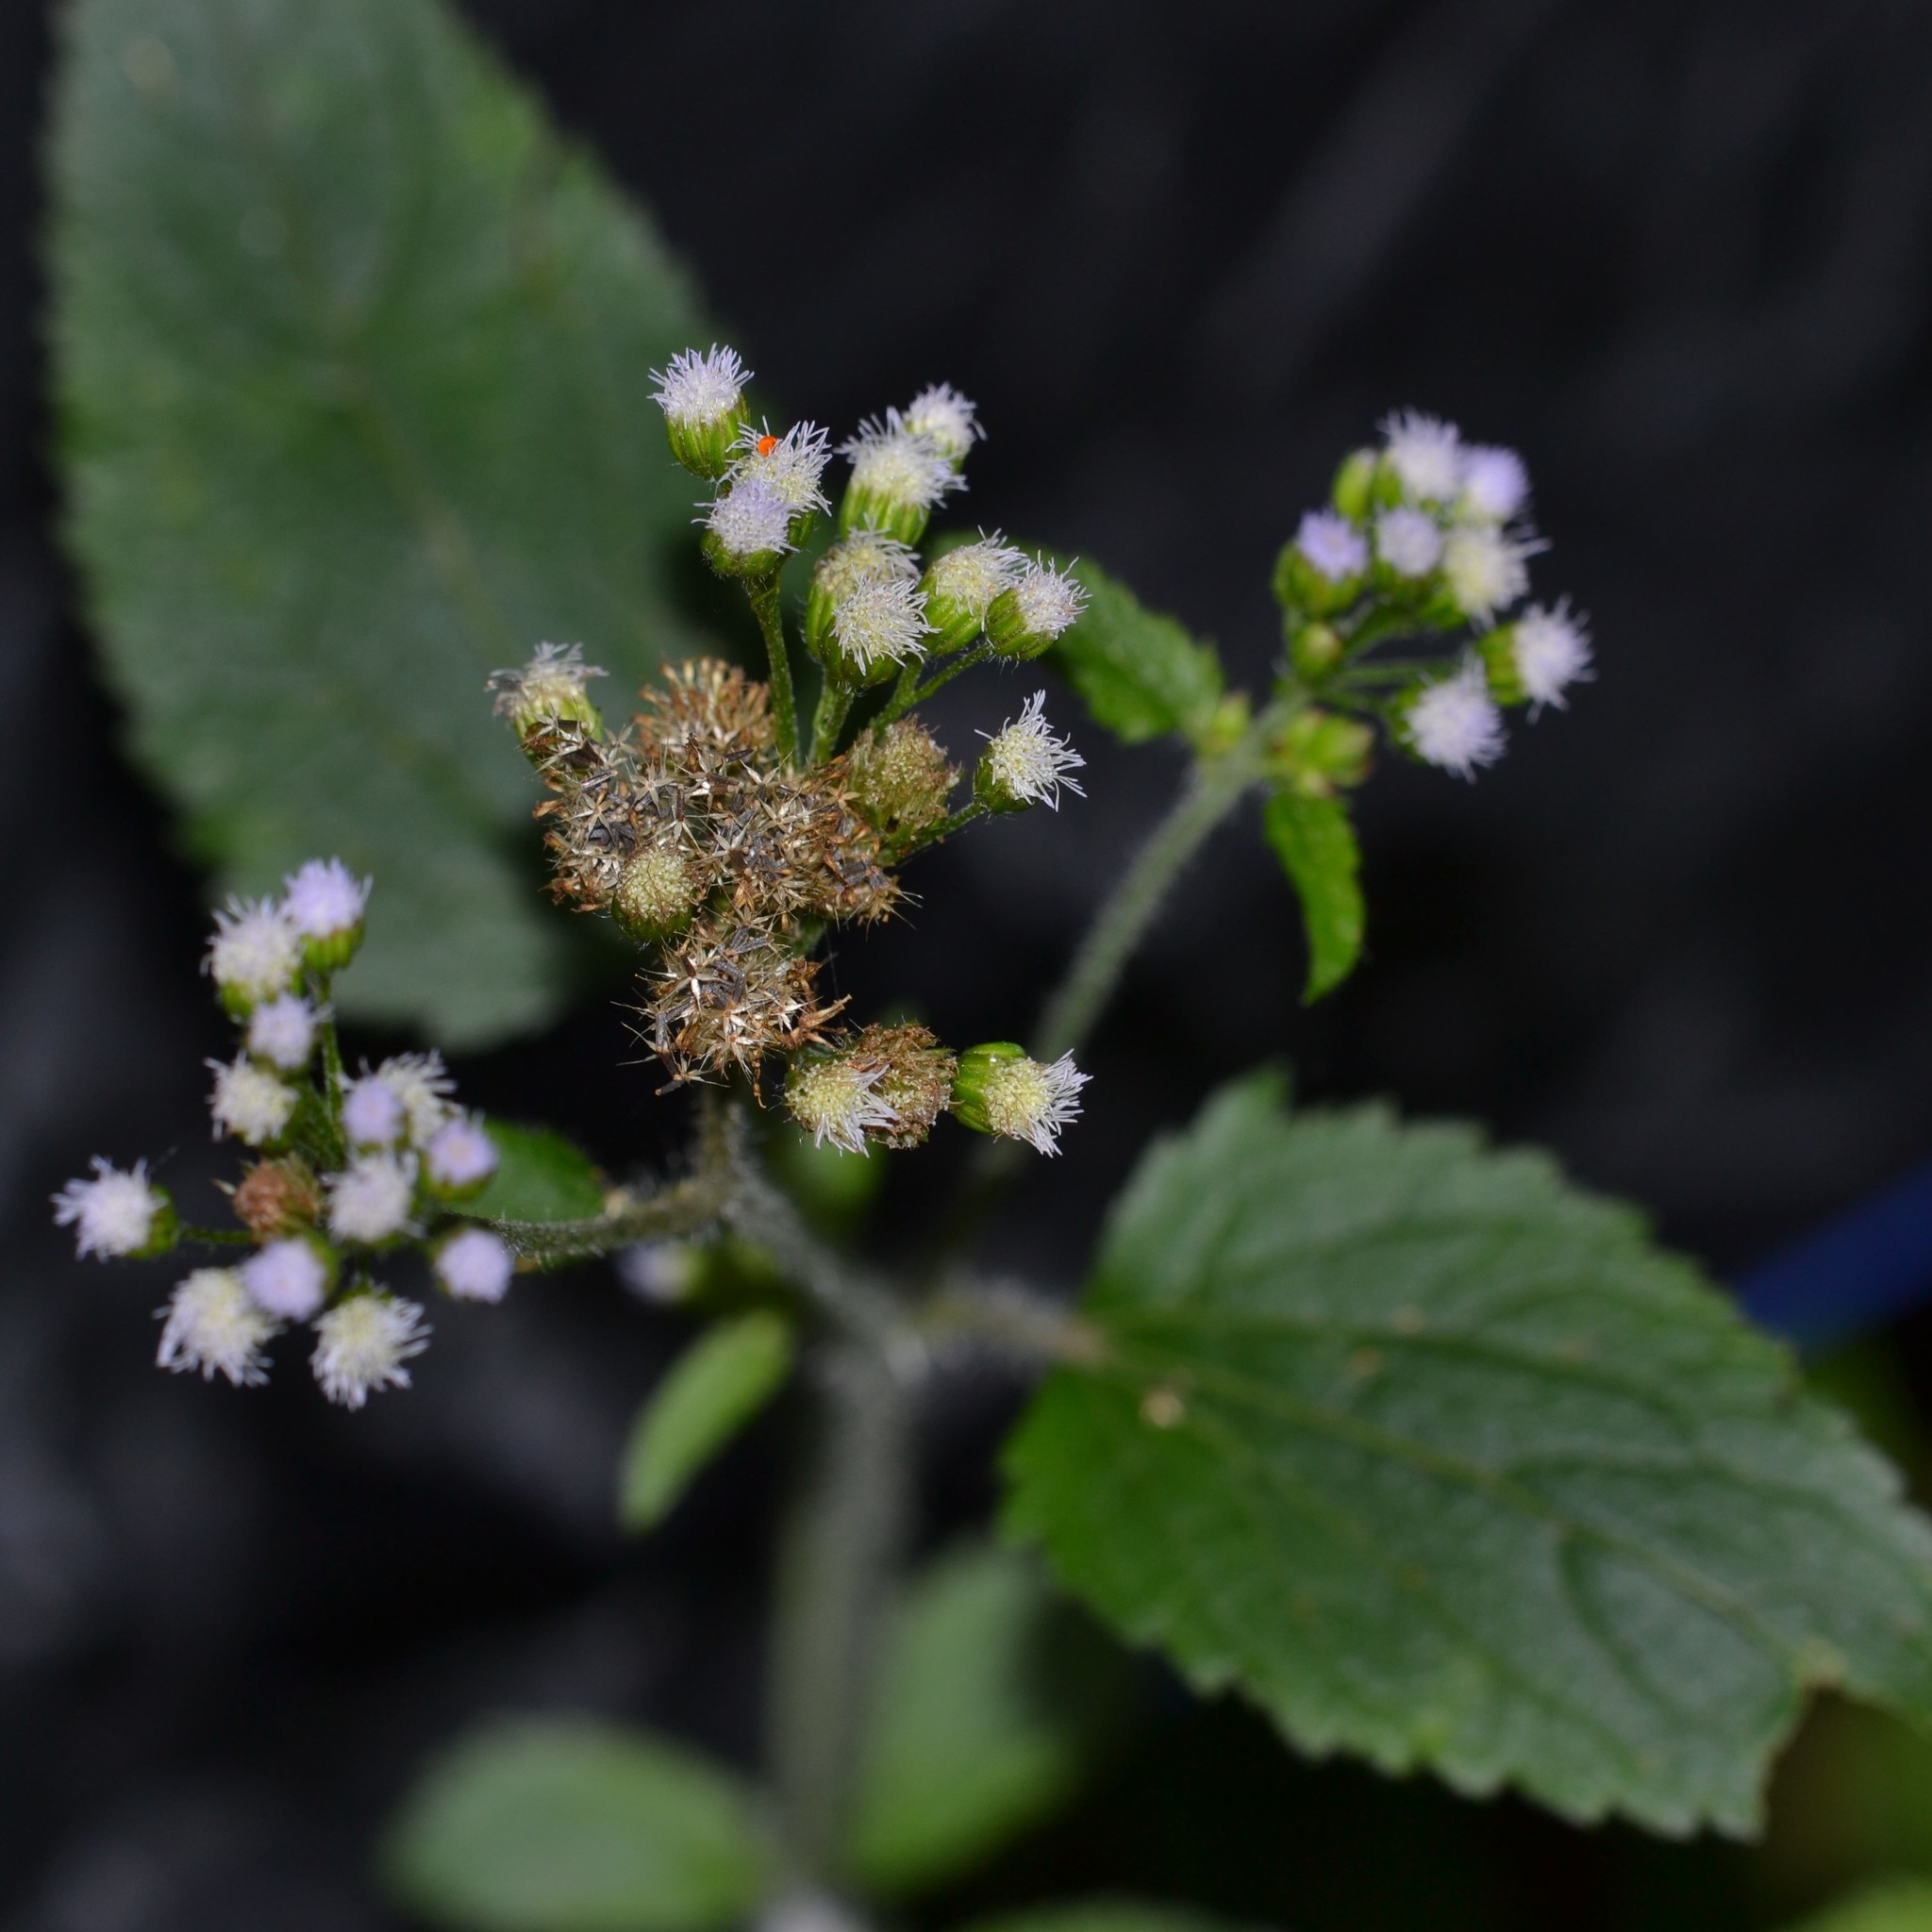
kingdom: Plantae
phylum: Tracheophyta
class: Magnoliopsida
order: Asterales
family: Asteraceae
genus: Ageratum
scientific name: Ageratum conyzoides
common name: Tropical whiteweed
